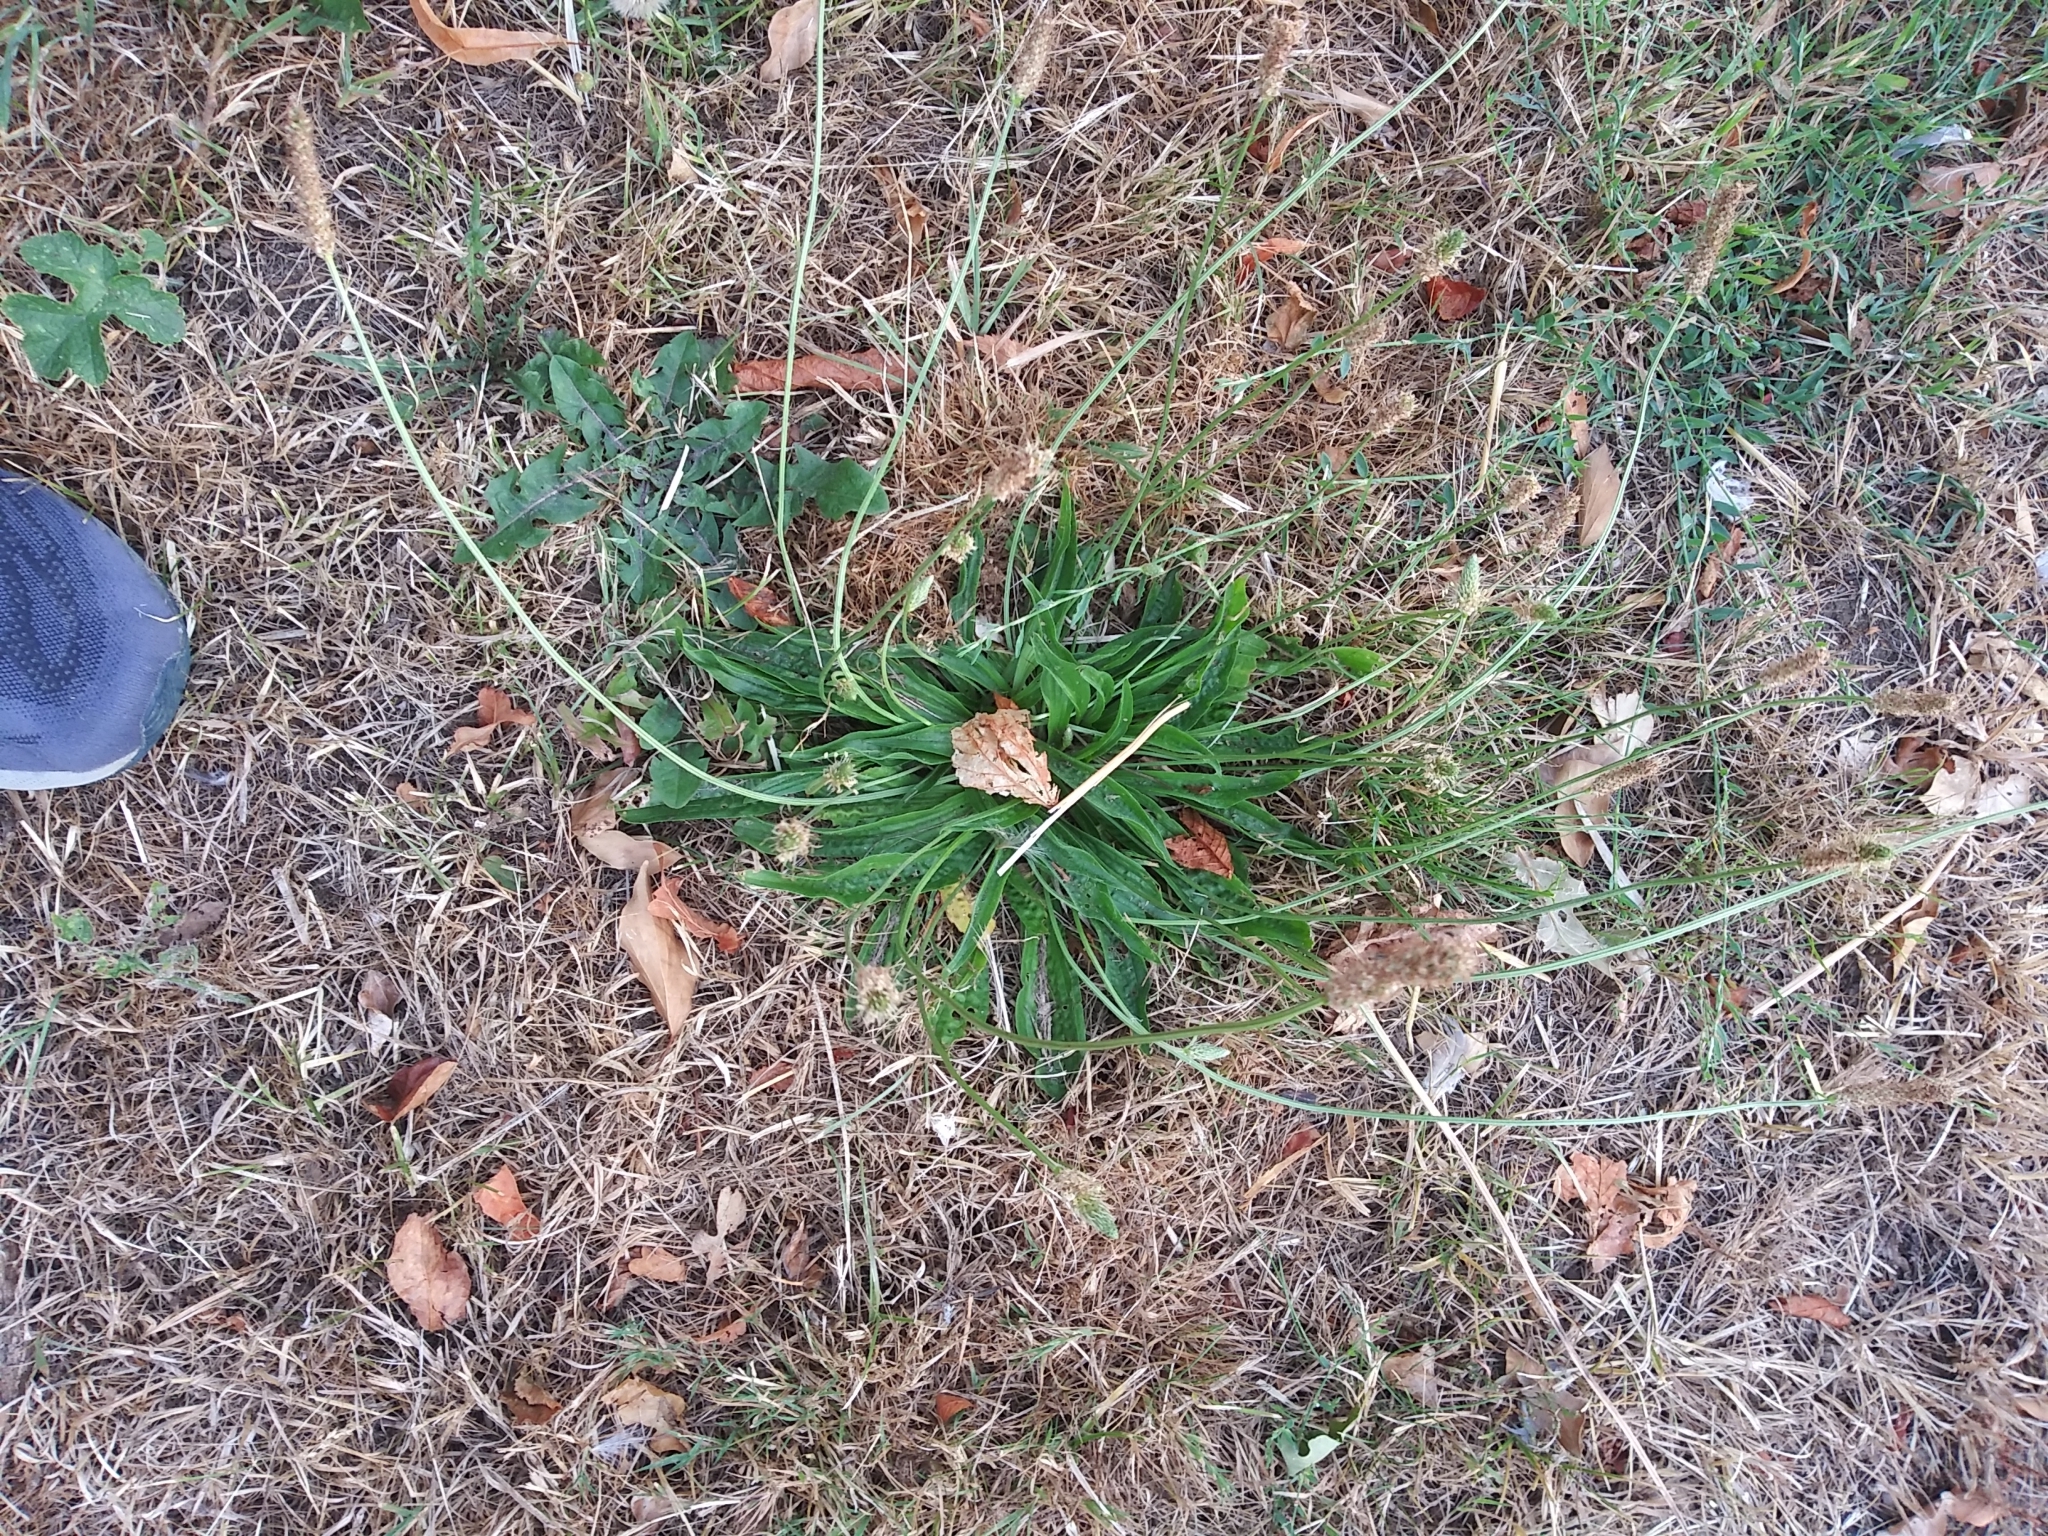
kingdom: Plantae
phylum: Tracheophyta
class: Magnoliopsida
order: Lamiales
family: Plantaginaceae
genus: Plantago
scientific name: Plantago lanceolata
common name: Ribwort plantain
